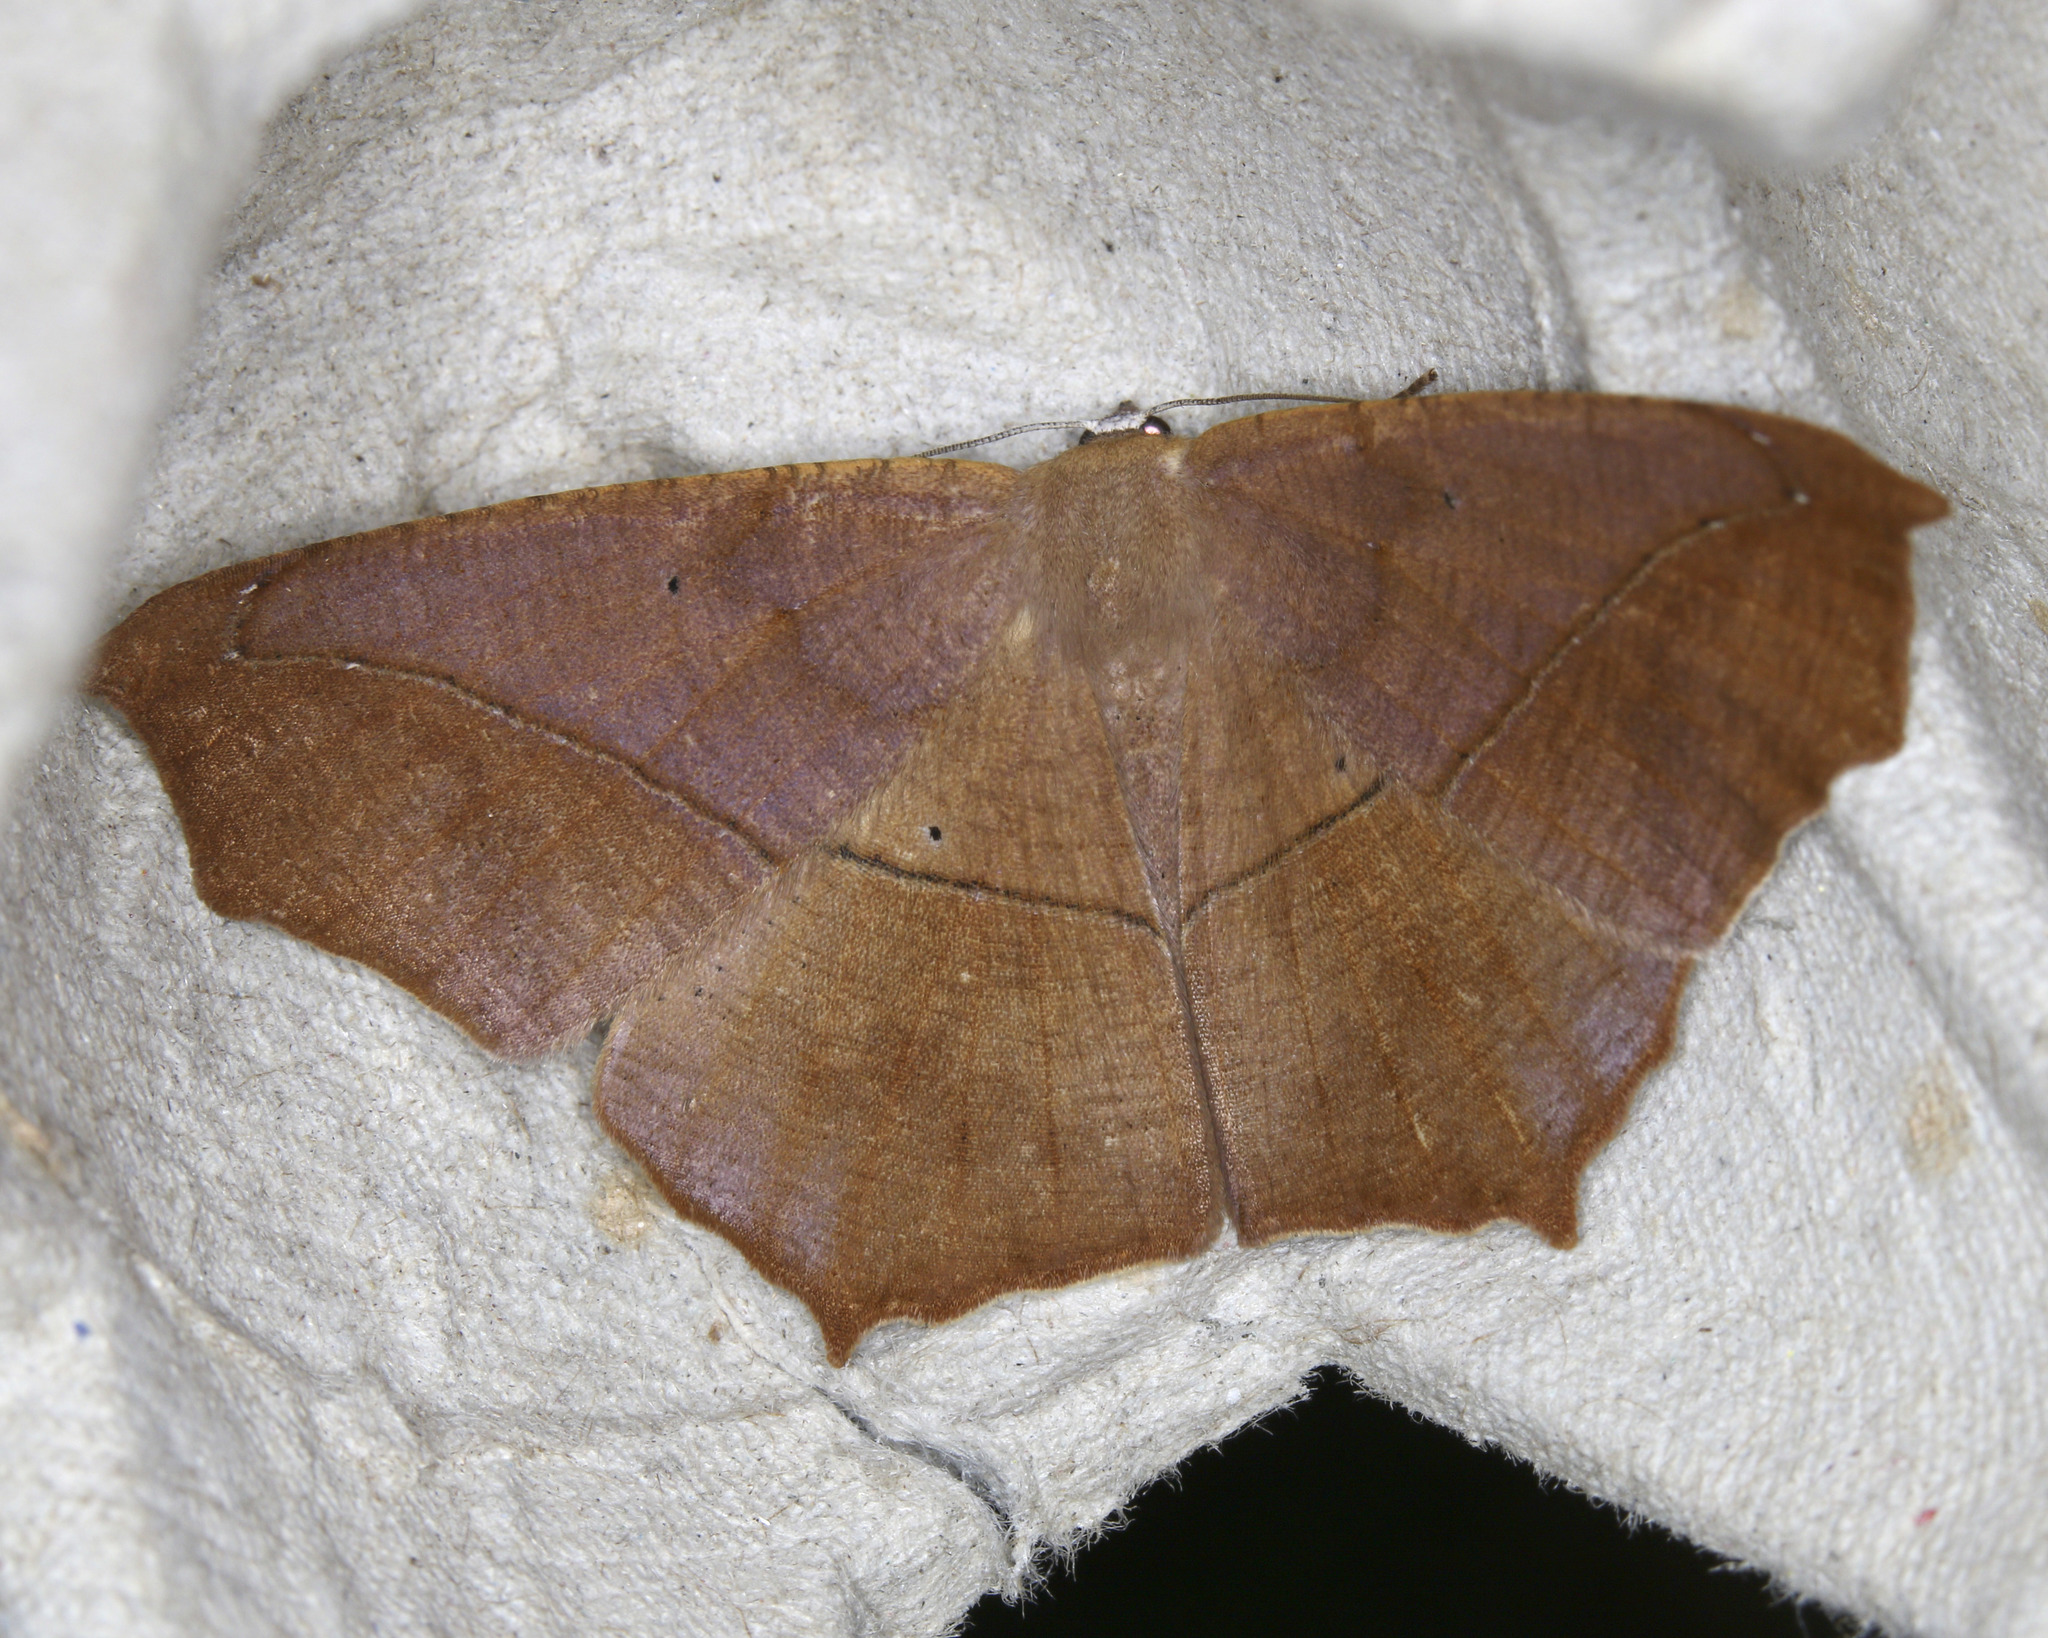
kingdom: Animalia
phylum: Arthropoda
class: Insecta
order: Lepidoptera
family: Geometridae
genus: Prochoerodes
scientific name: Prochoerodes lineola
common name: Large maple spanworm
